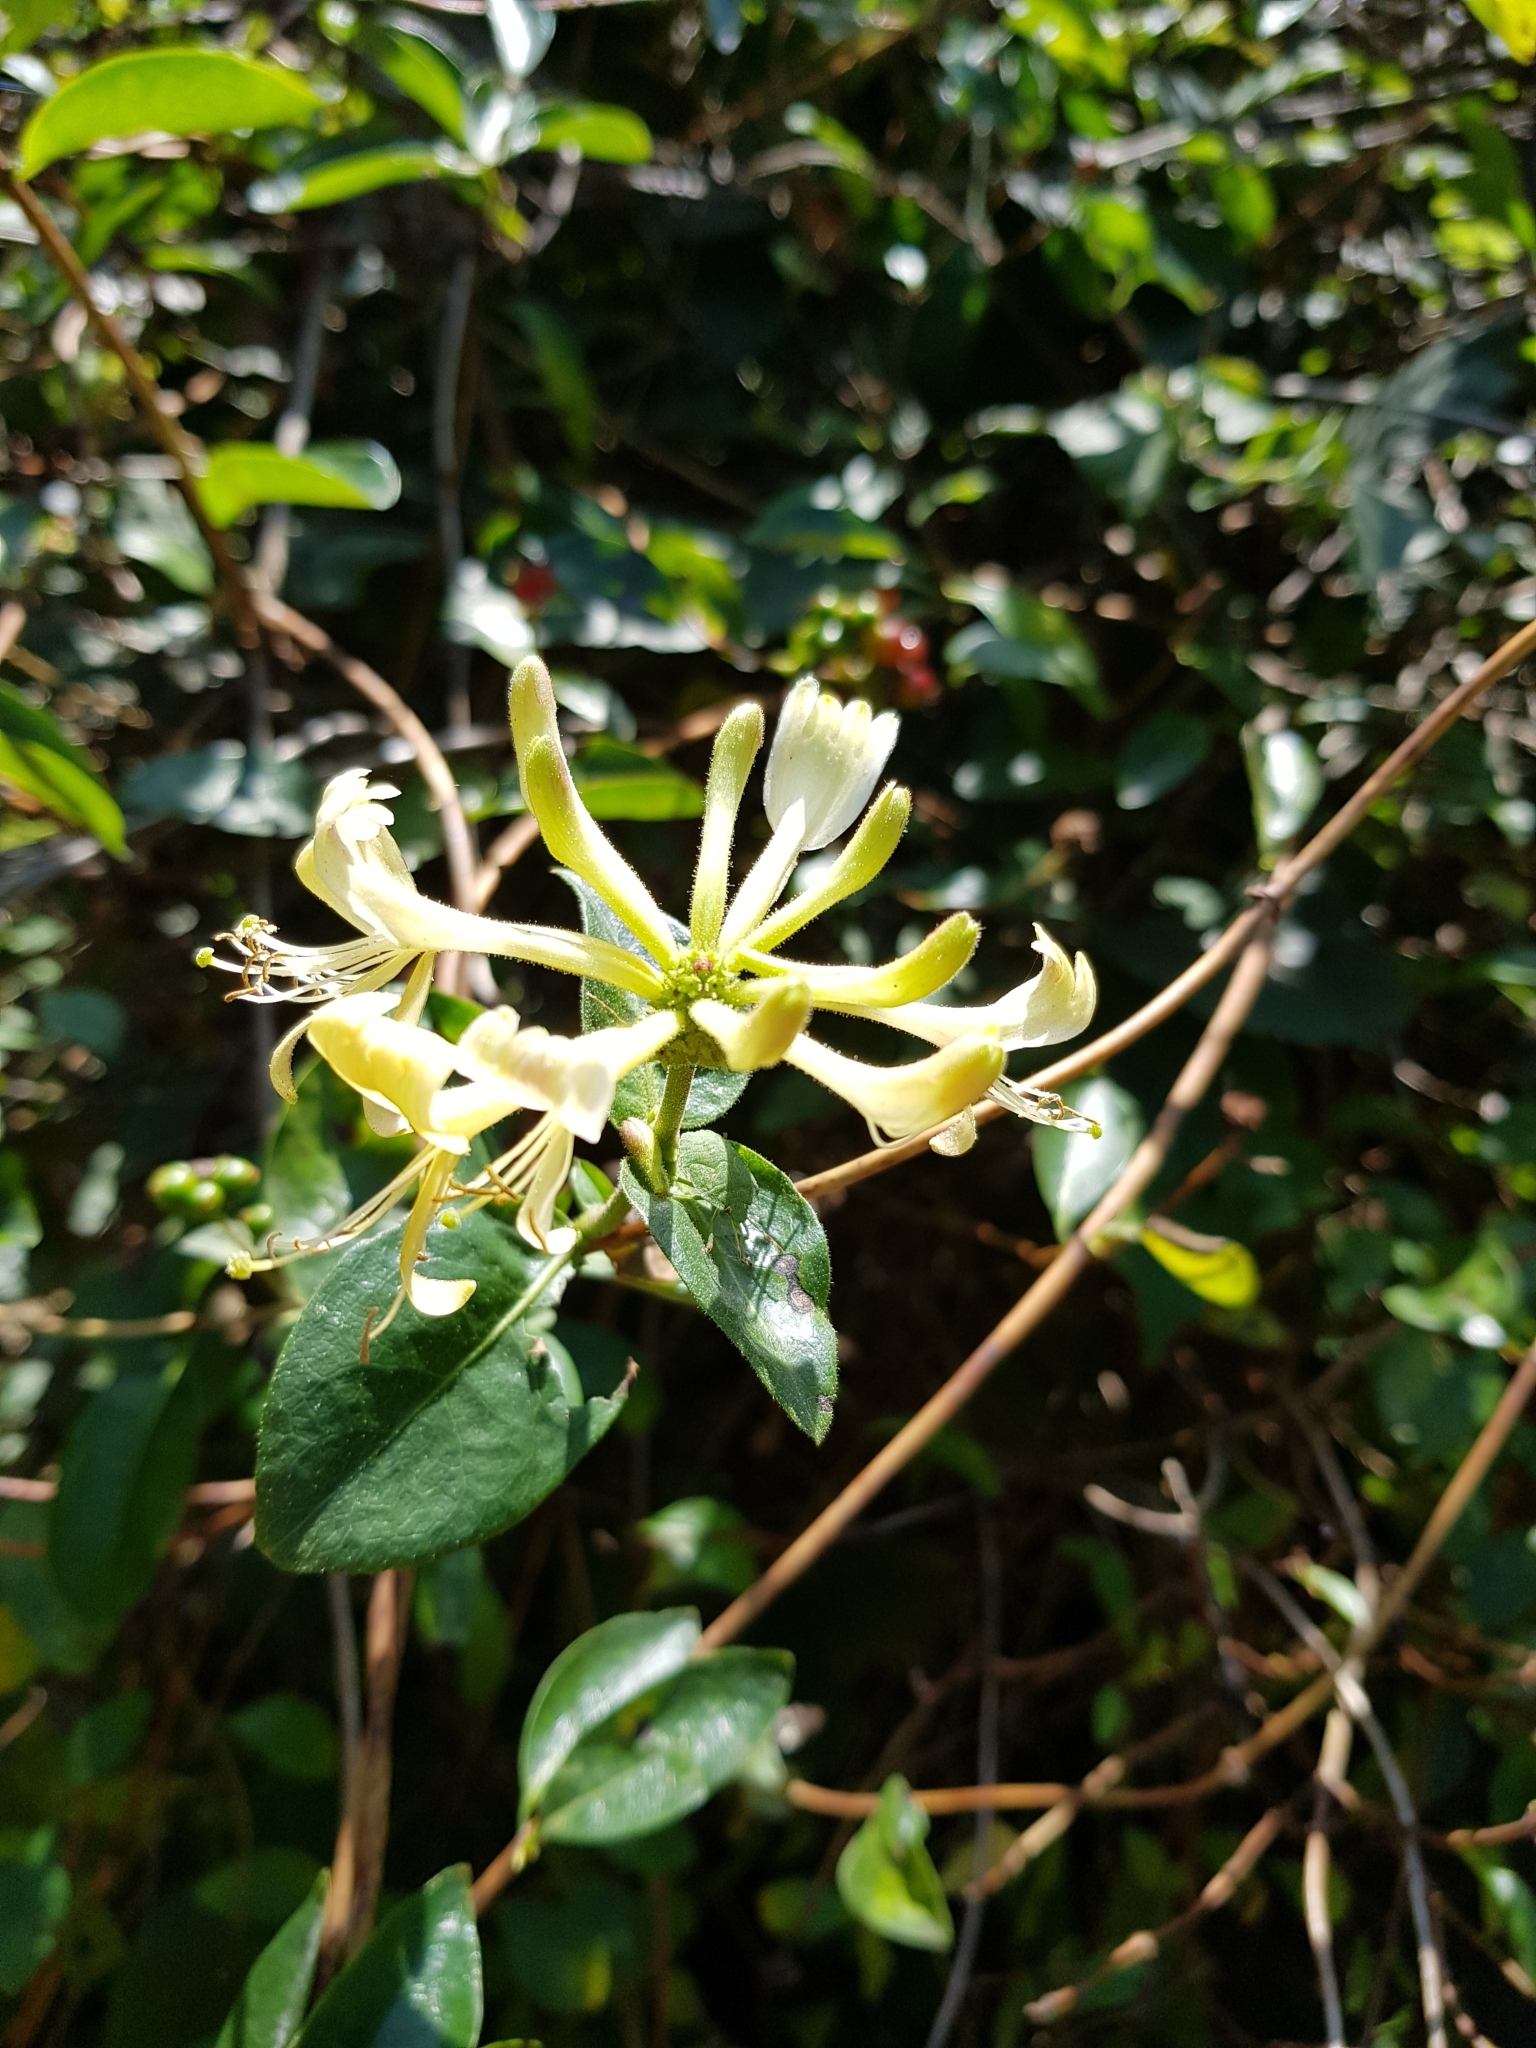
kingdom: Plantae
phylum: Tracheophyta
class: Magnoliopsida
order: Dipsacales
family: Caprifoliaceae
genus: Lonicera
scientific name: Lonicera periclymenum
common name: European honeysuckle
